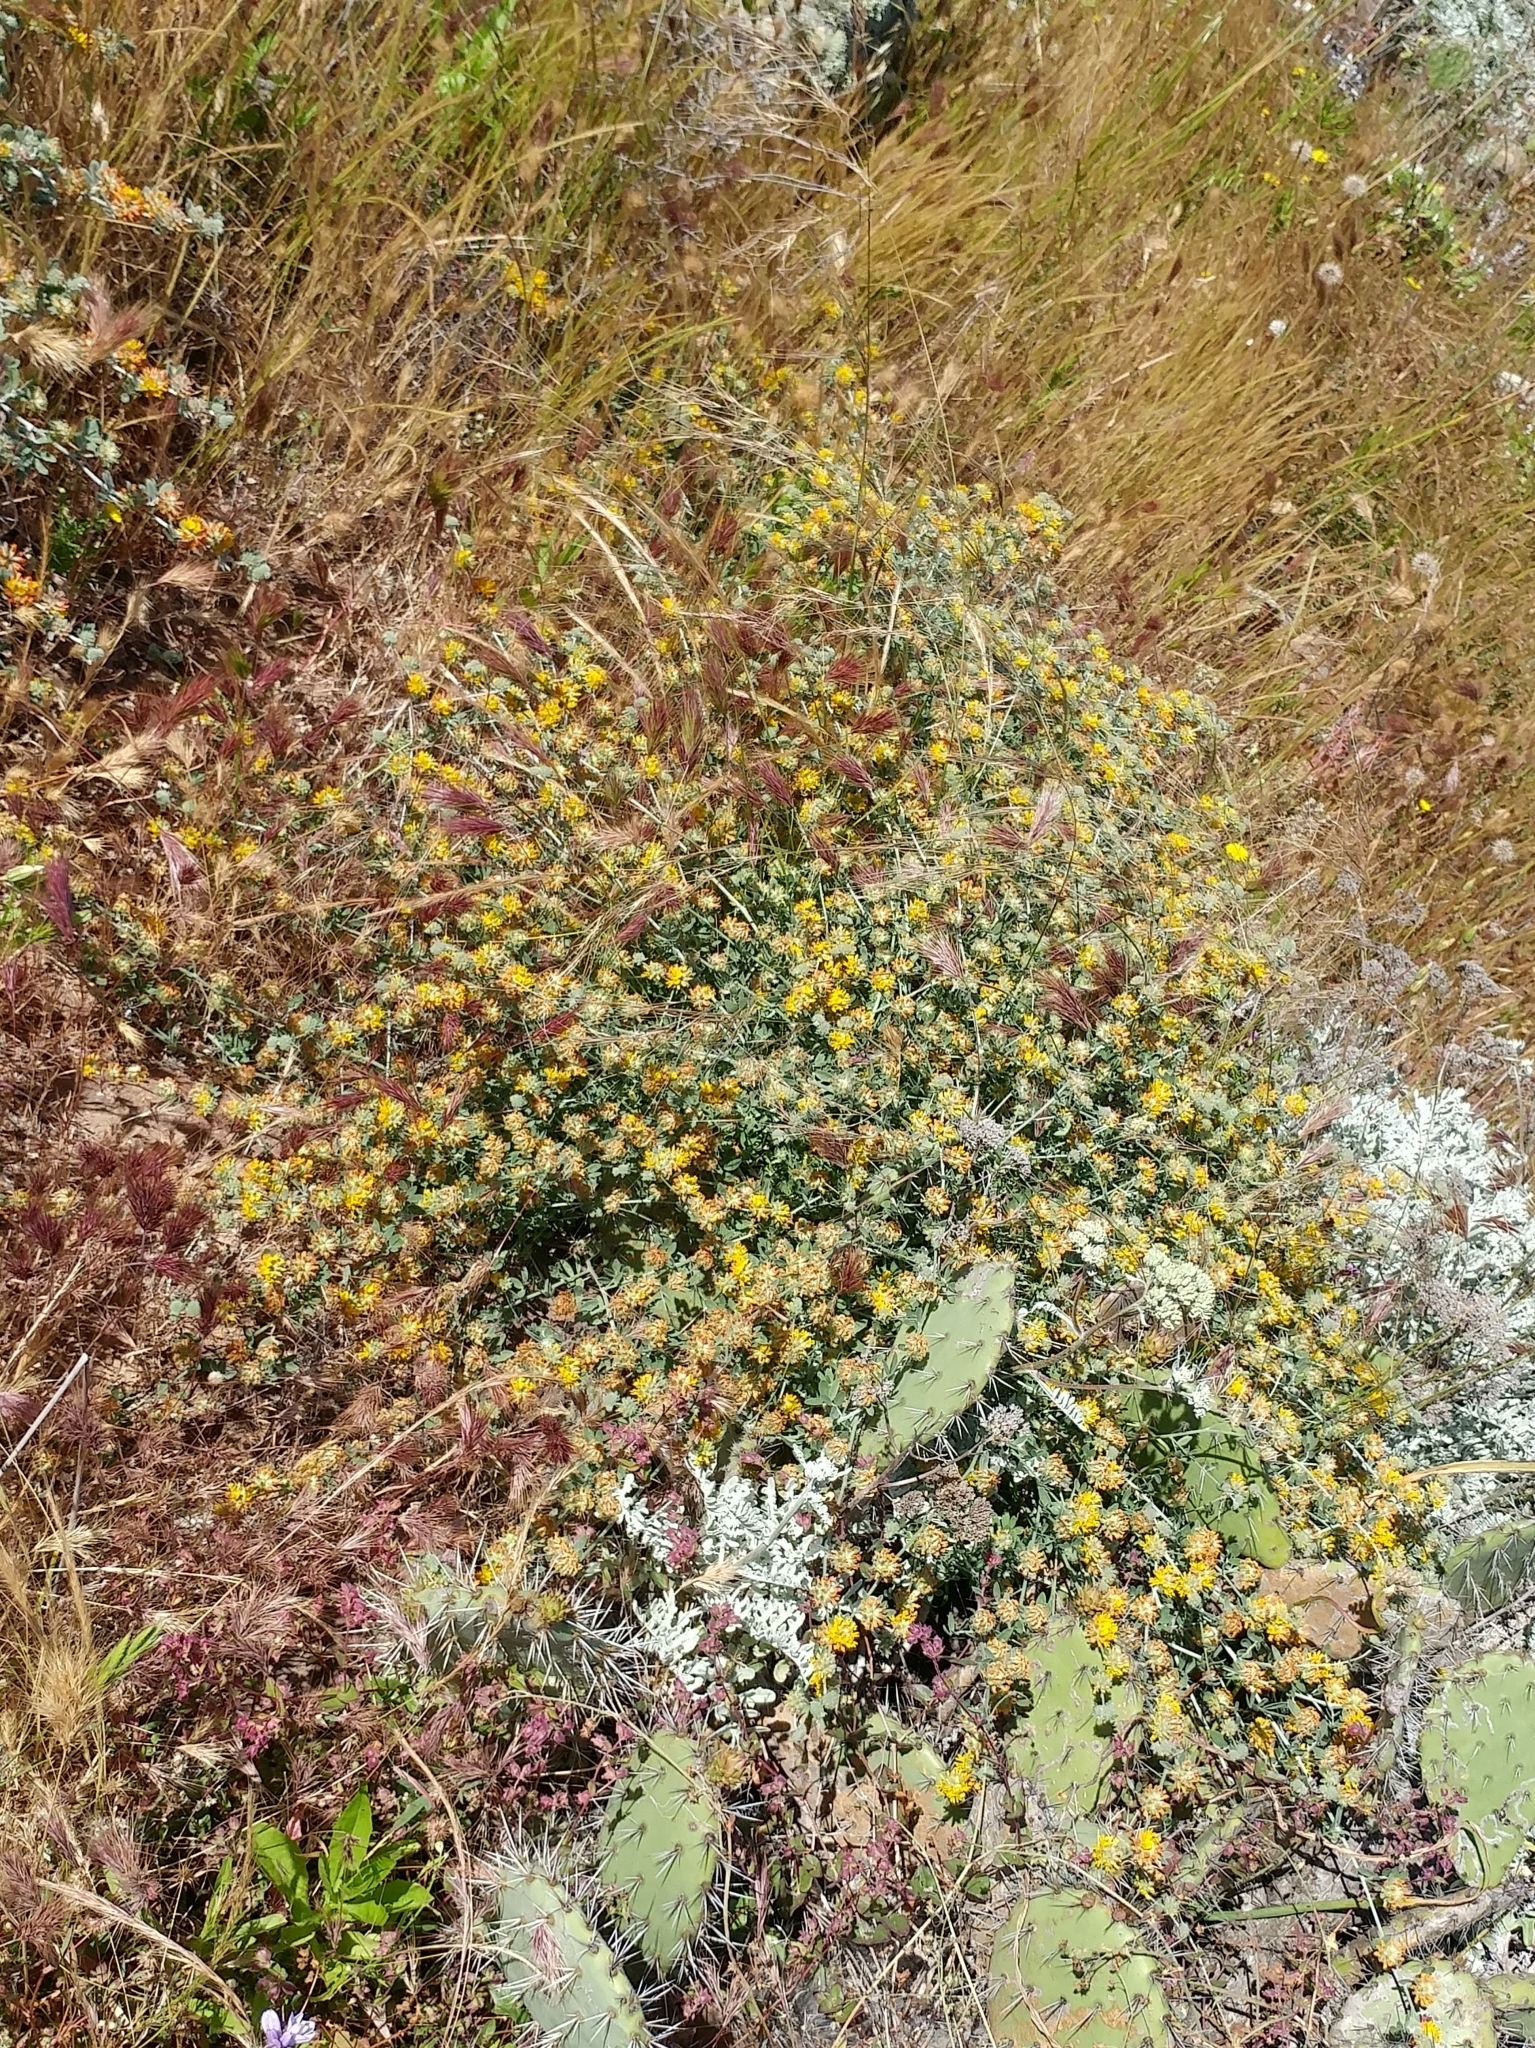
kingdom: Plantae
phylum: Tracheophyta
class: Magnoliopsida
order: Fabales
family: Fabaceae
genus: Acmispon
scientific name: Acmispon argophyllus
